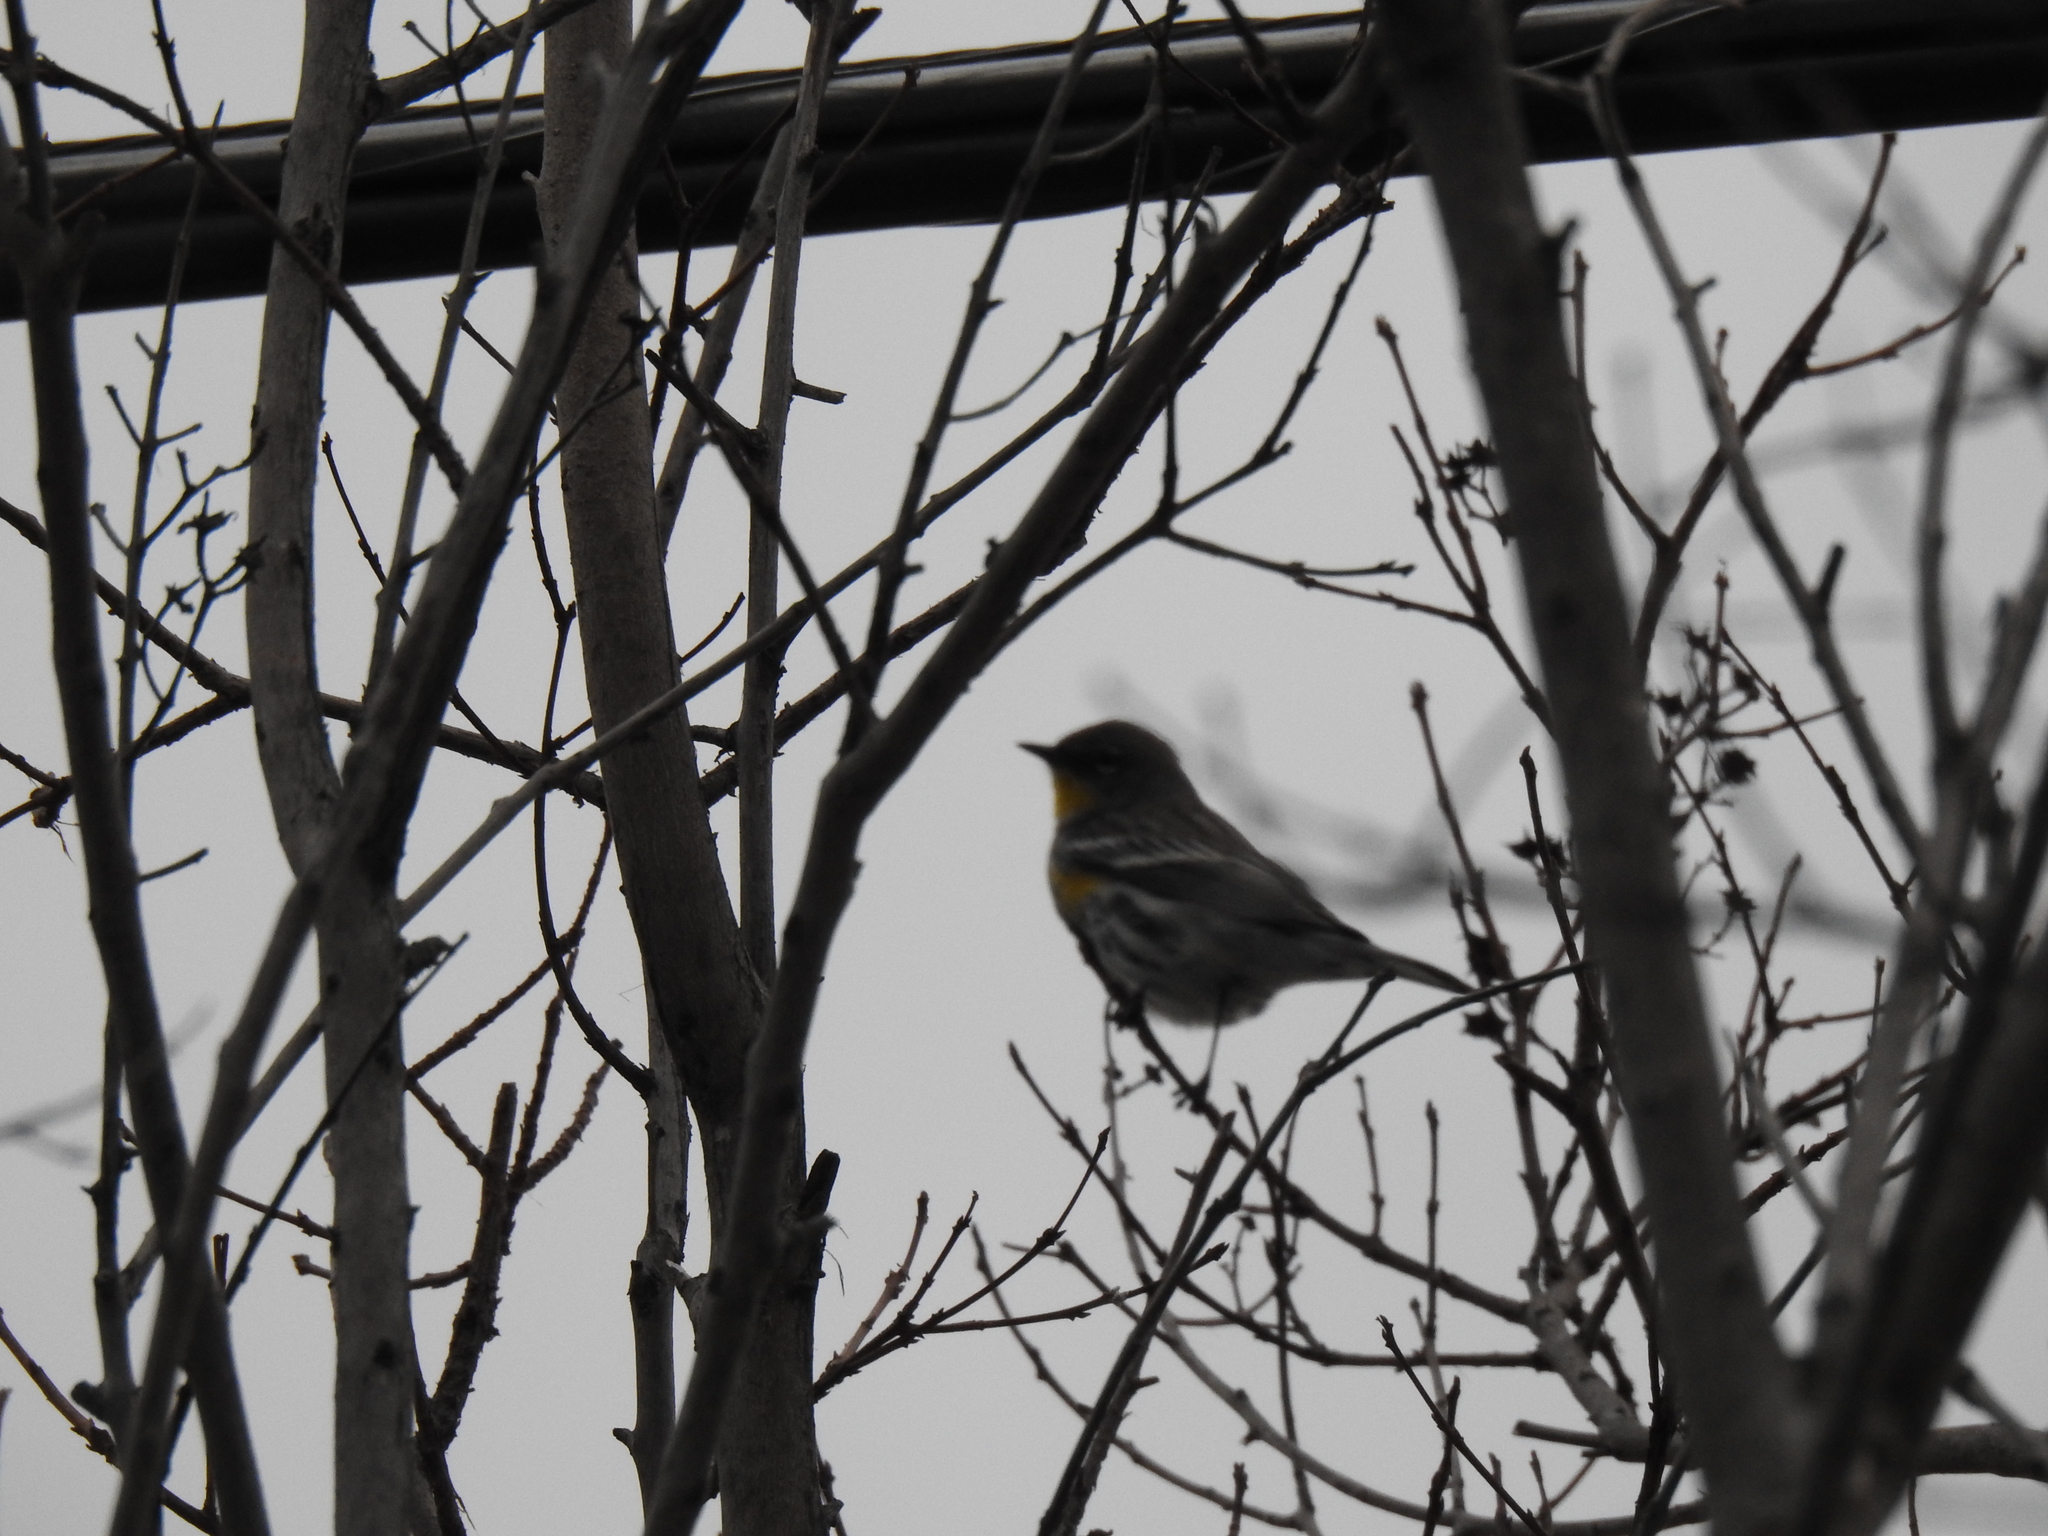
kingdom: Animalia
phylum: Chordata
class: Aves
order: Passeriformes
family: Parulidae
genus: Setophaga
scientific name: Setophaga coronata
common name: Myrtle warbler
